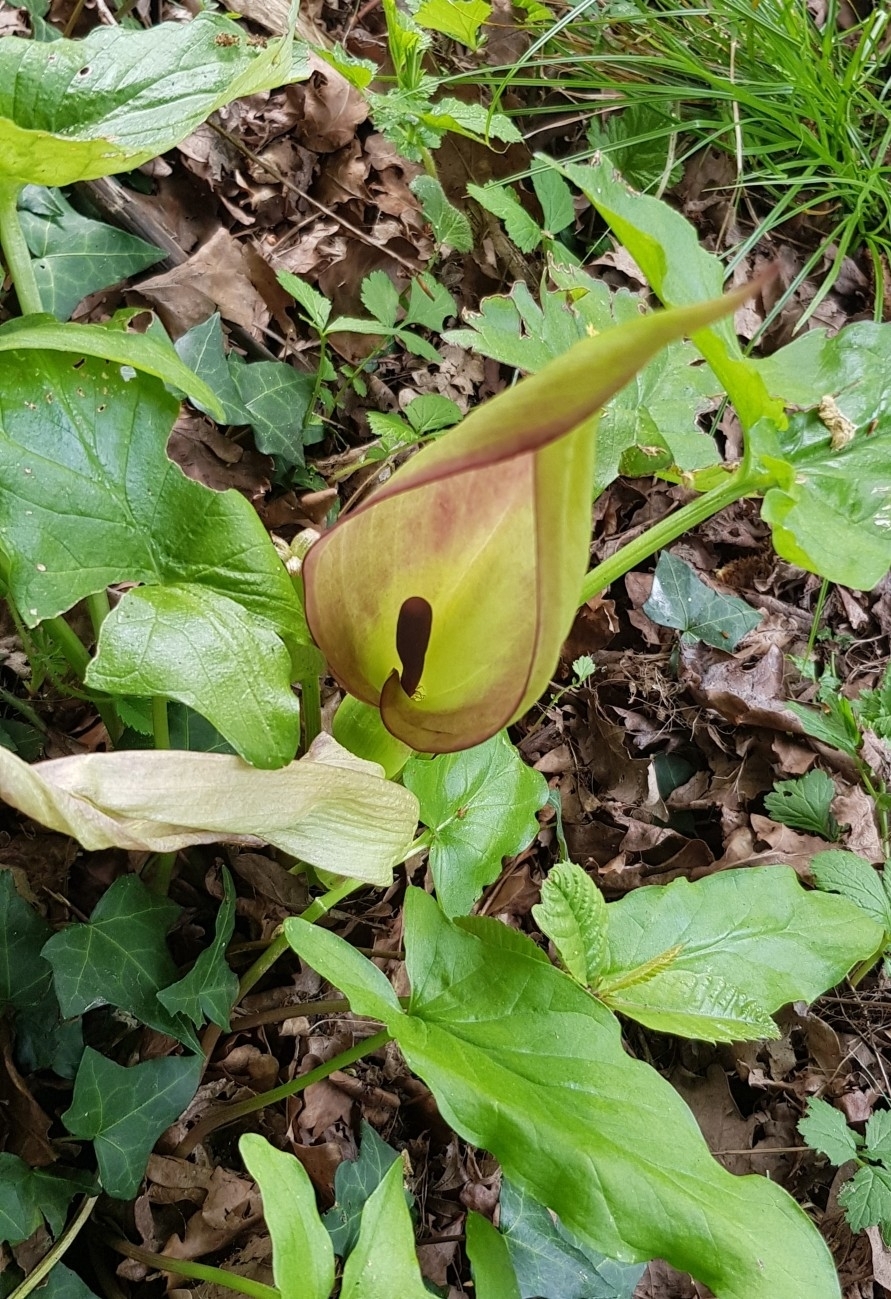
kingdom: Plantae
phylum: Tracheophyta
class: Liliopsida
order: Alismatales
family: Araceae
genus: Arum
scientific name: Arum maculatum
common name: Lords-and-ladies
